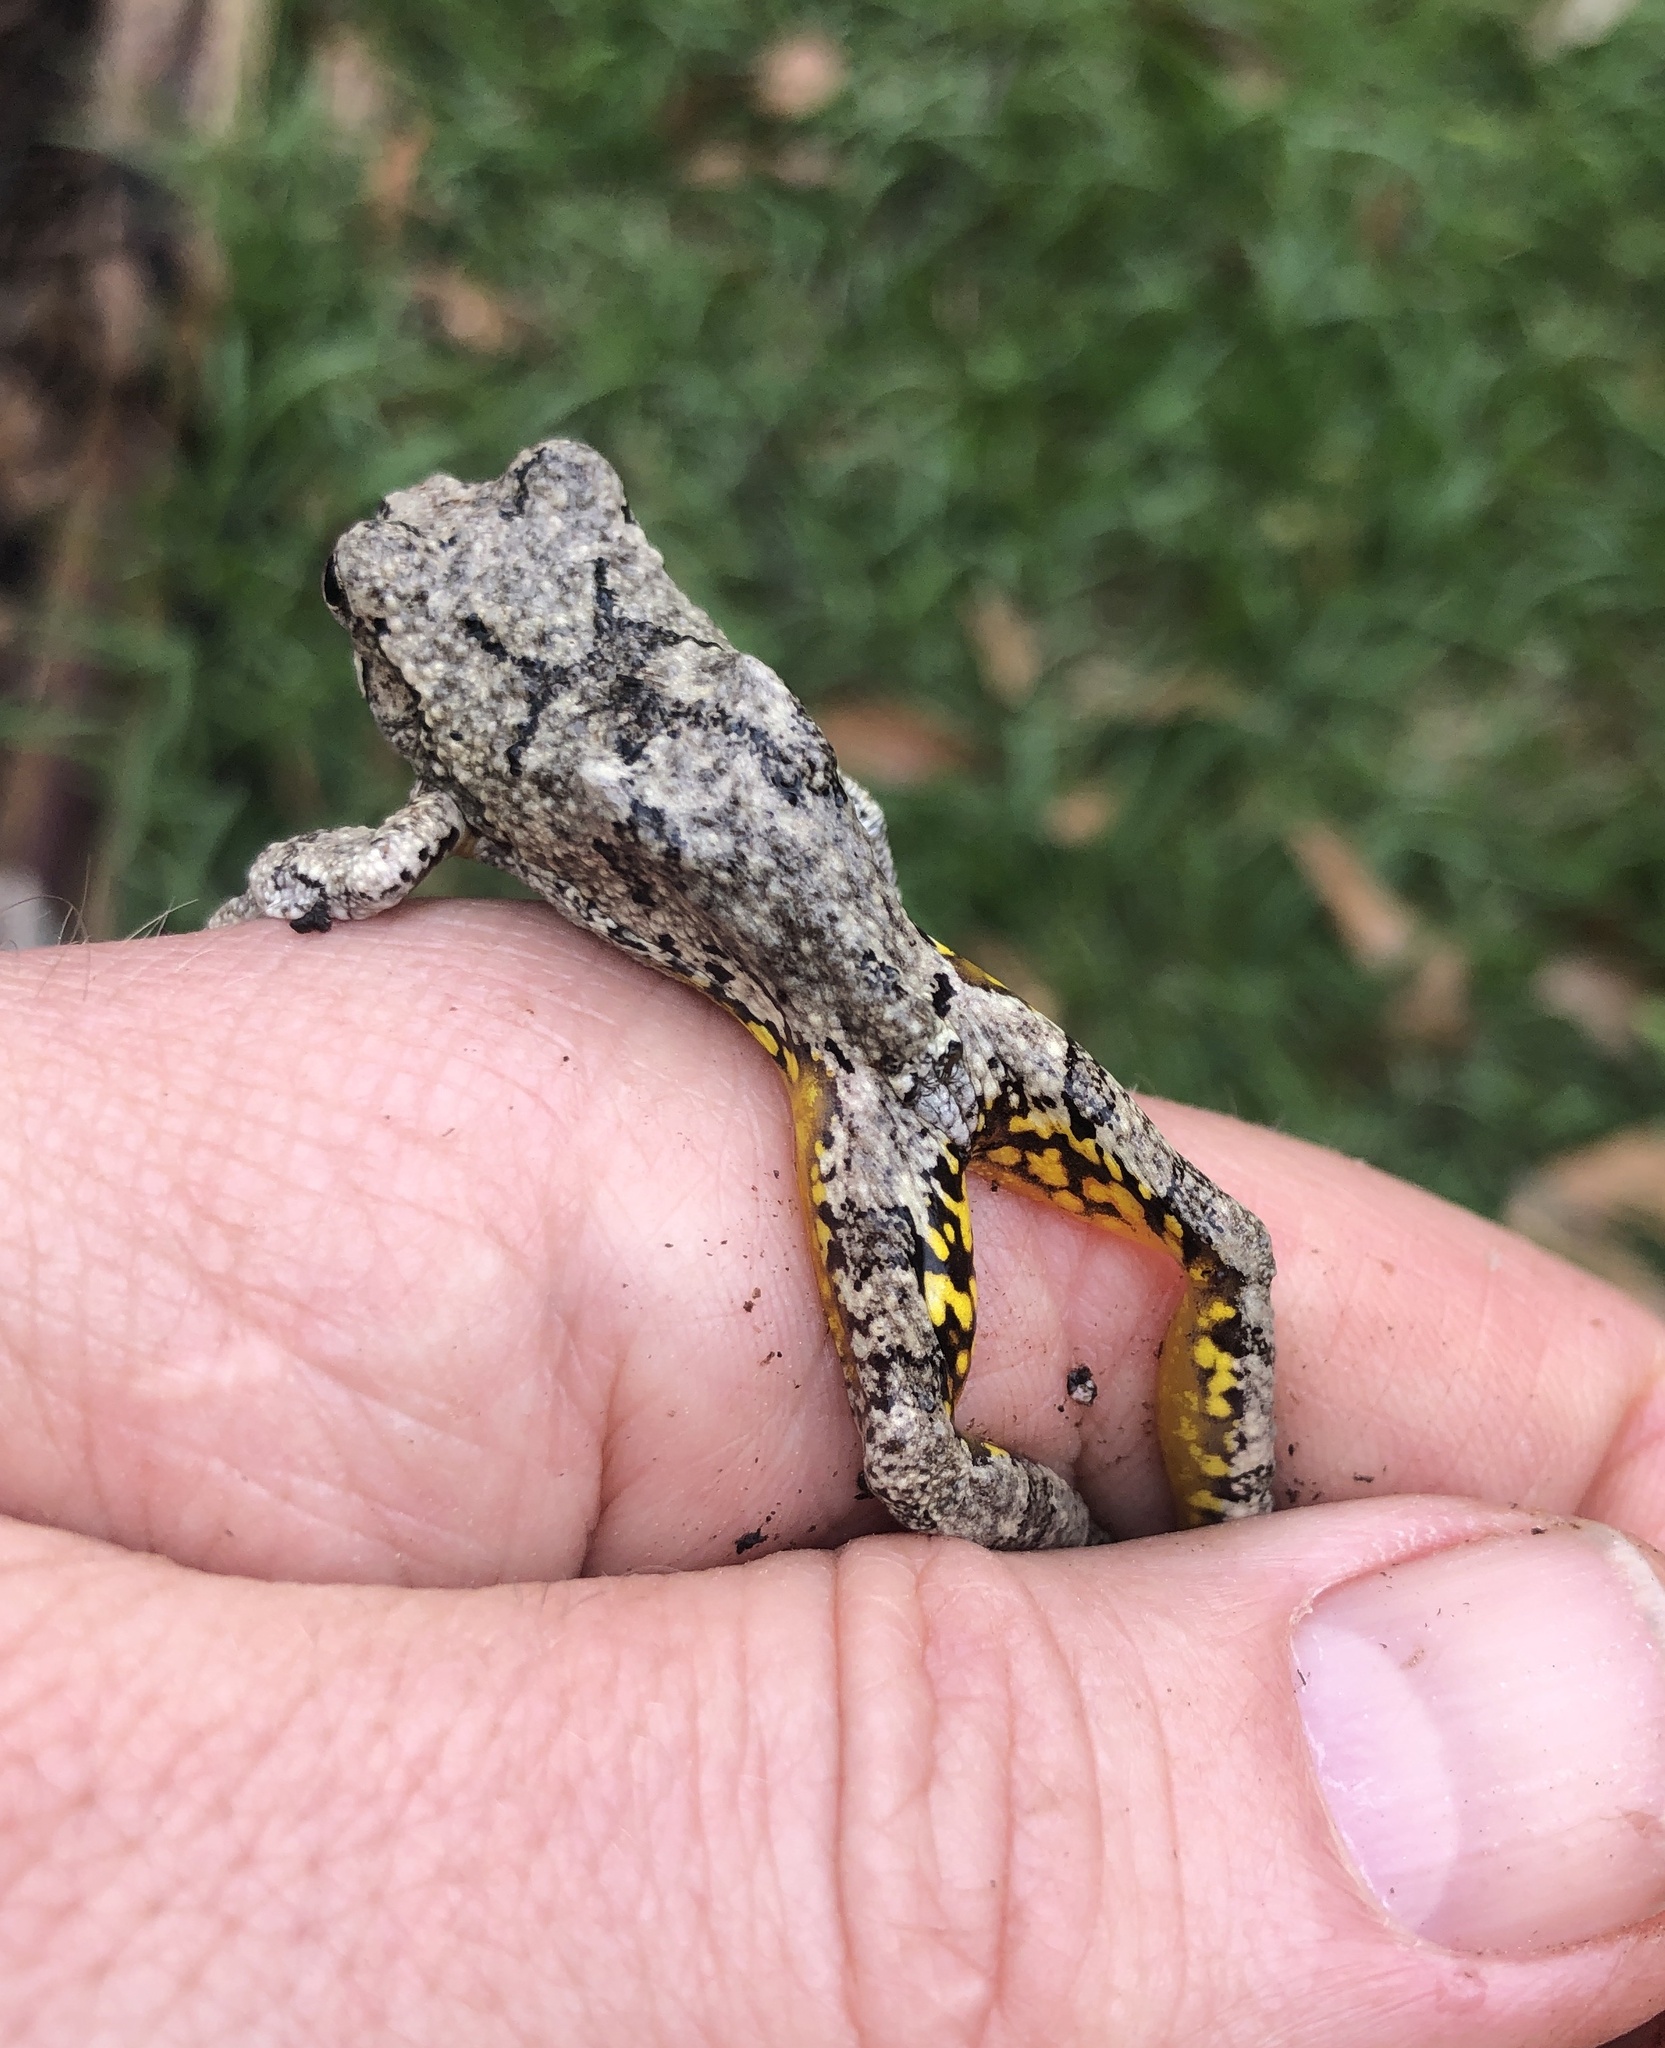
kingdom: Animalia
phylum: Chordata
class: Amphibia
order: Anura
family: Hylidae
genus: Dryophytes
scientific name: Dryophytes chrysoscelis
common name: Cope's gray treefrog
